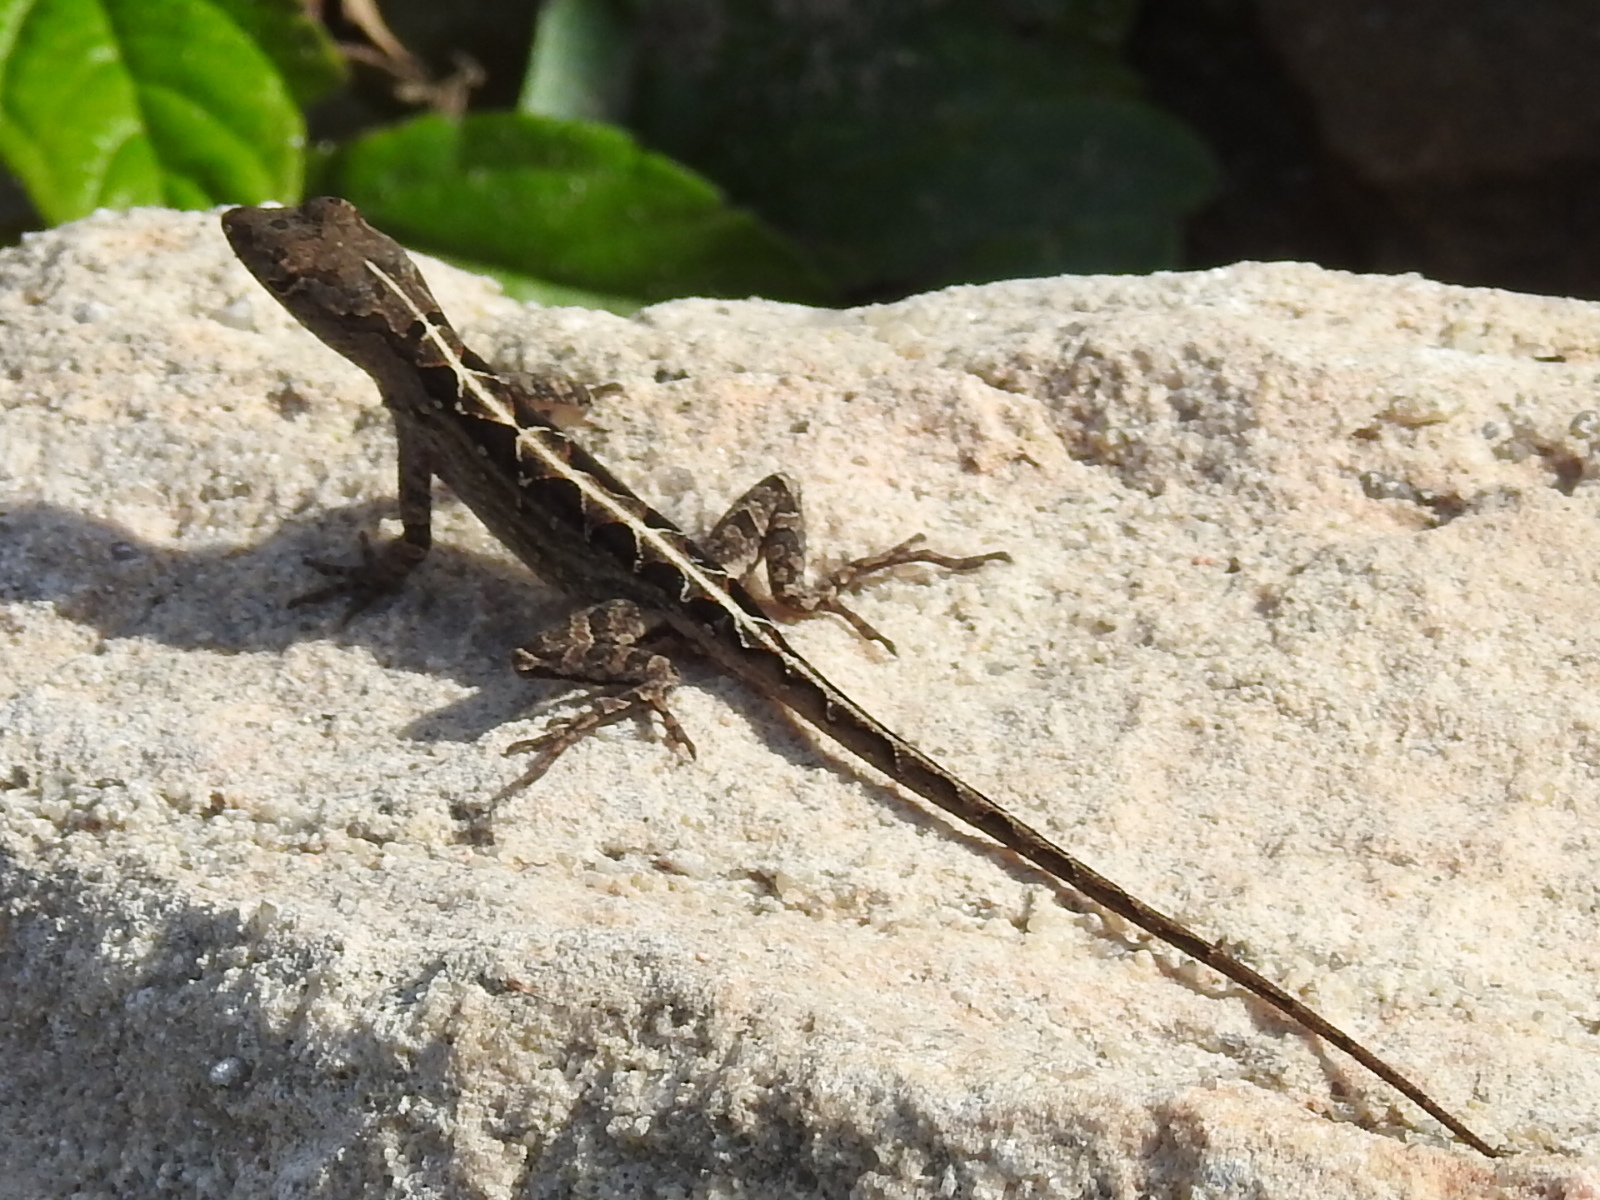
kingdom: Animalia
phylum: Chordata
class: Squamata
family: Dactyloidae
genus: Anolis
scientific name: Anolis sagrei
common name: Brown anole
